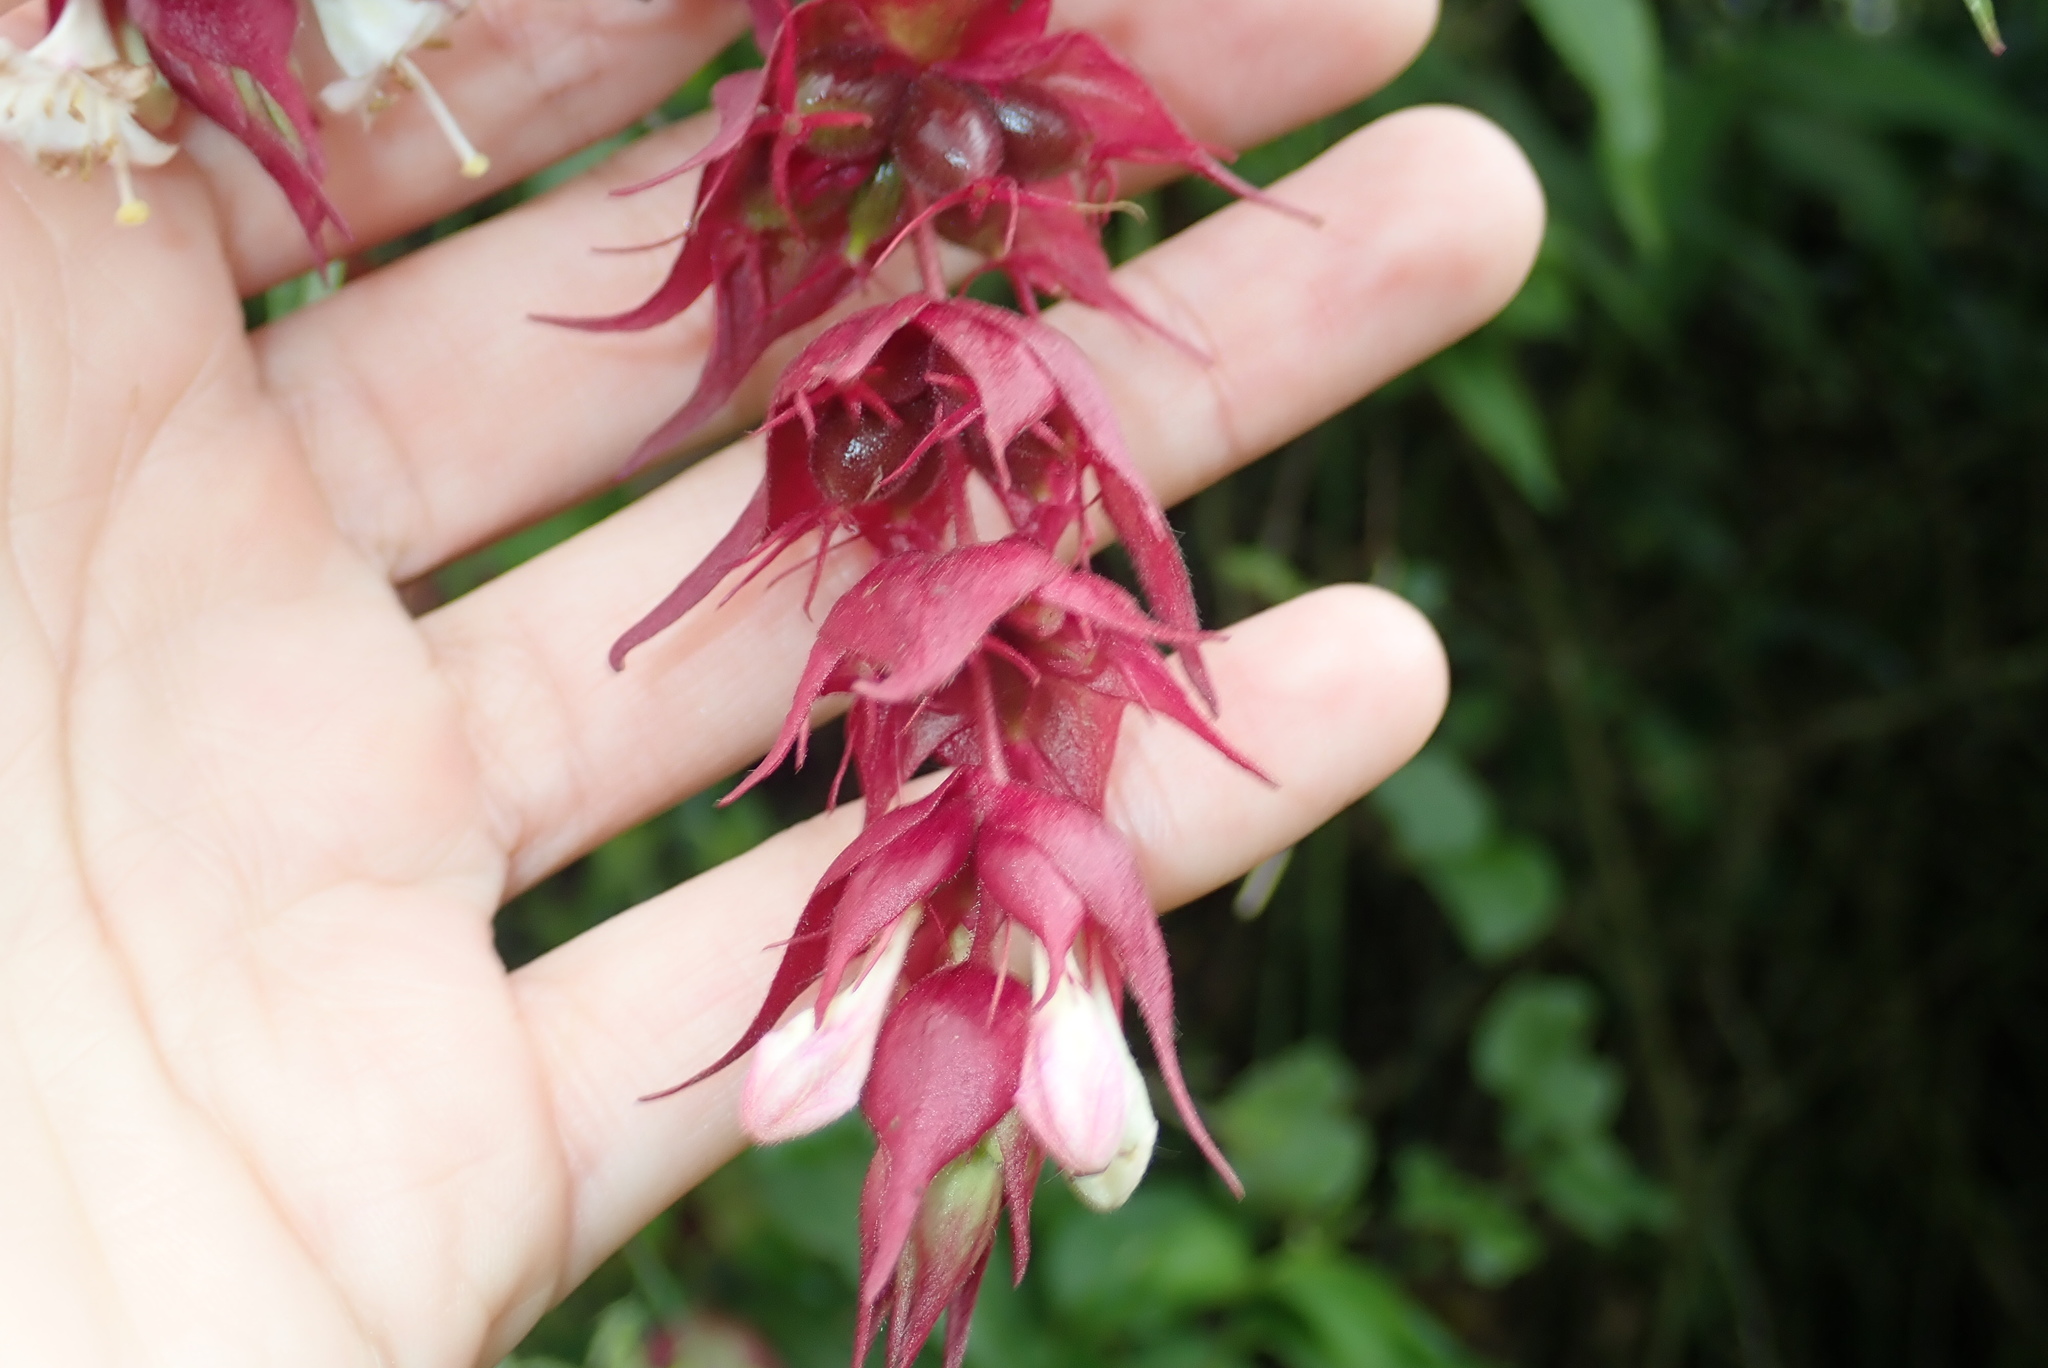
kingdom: Plantae
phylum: Tracheophyta
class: Magnoliopsida
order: Dipsacales
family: Caprifoliaceae
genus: Leycesteria
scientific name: Leycesteria formosa
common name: Himalayan honeysuckle
